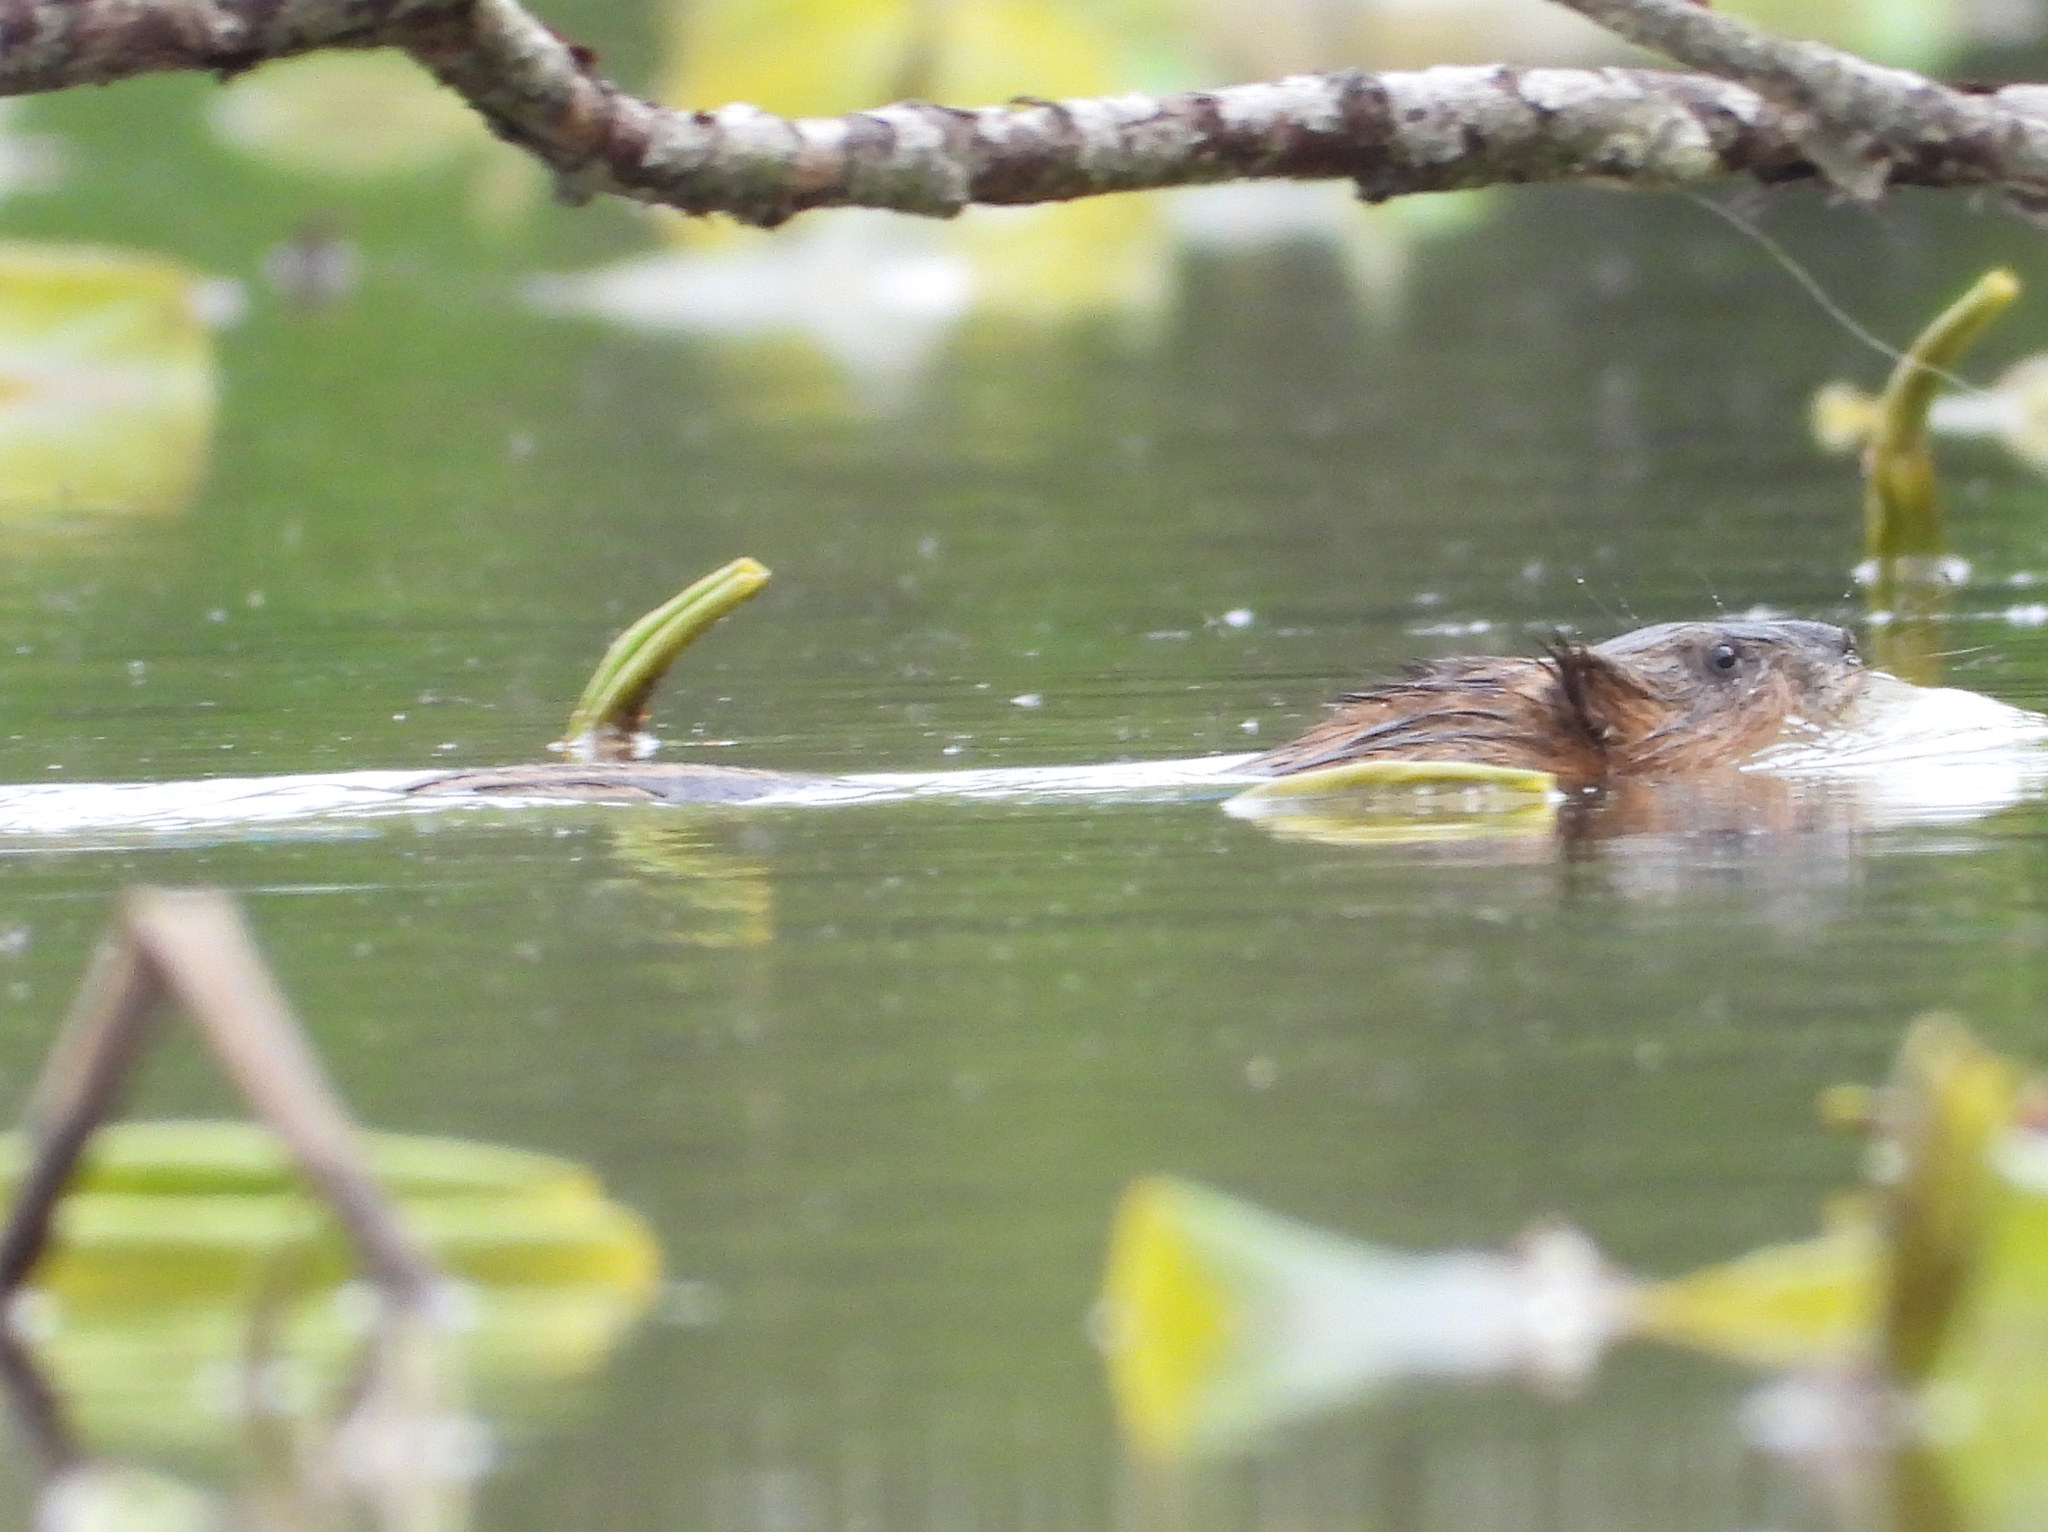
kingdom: Animalia
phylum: Chordata
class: Mammalia
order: Rodentia
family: Cricetidae
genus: Ondatra
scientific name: Ondatra zibethicus
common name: Muskrat
